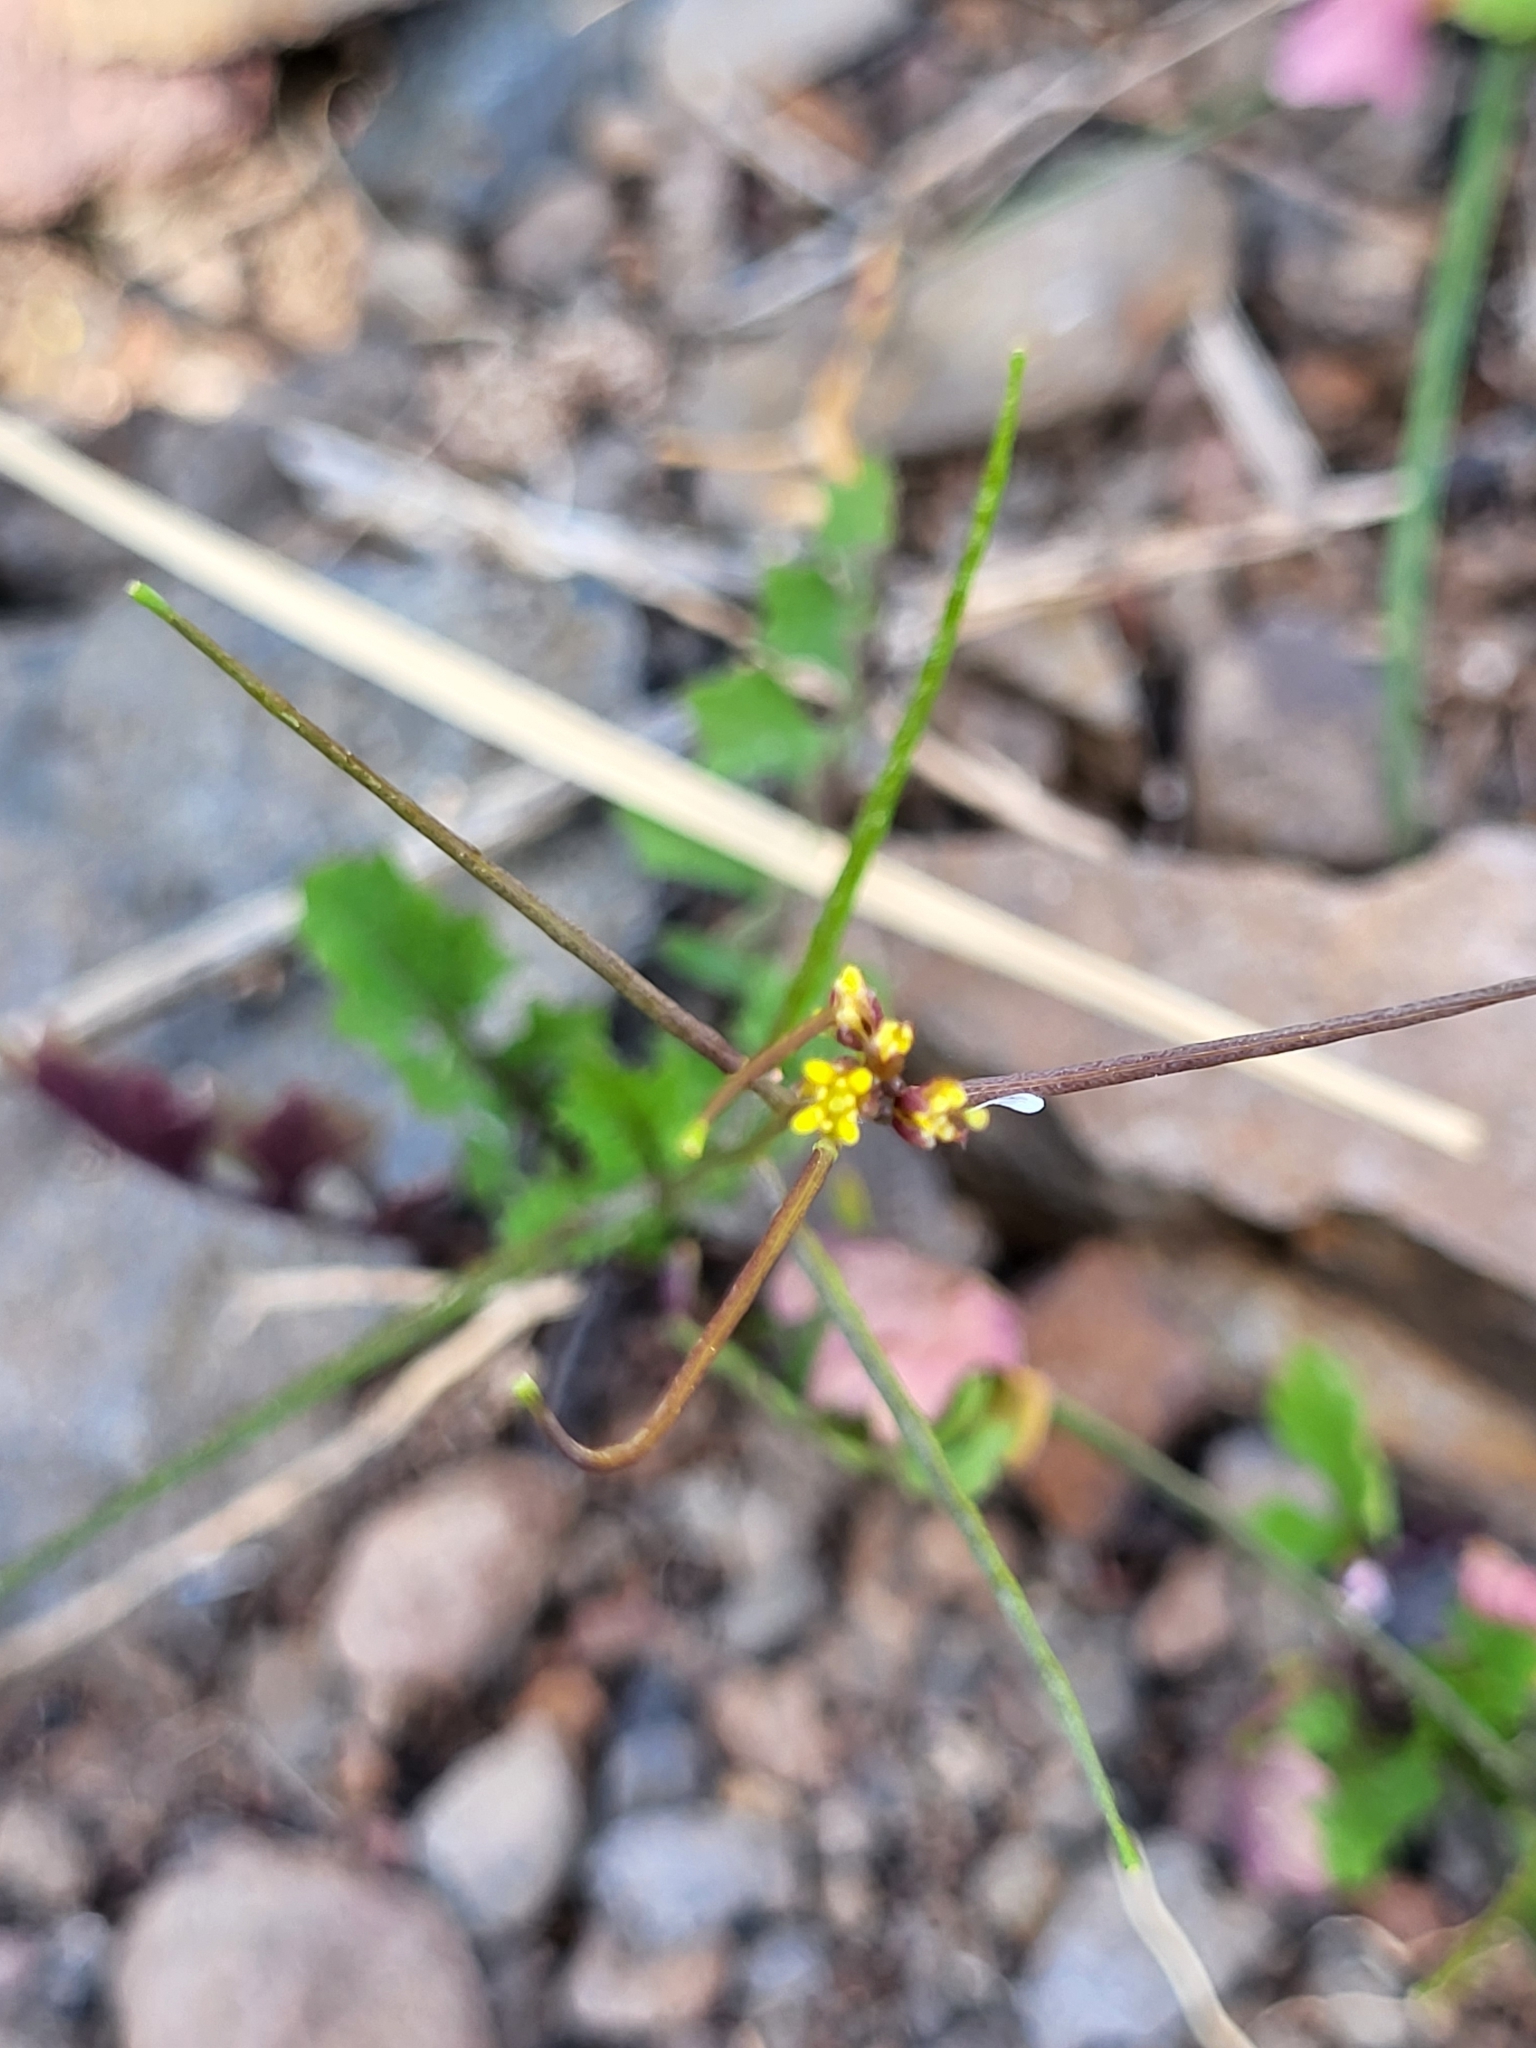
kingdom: Plantae
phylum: Tracheophyta
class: Magnoliopsida
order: Brassicales
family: Brassicaceae
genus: Sisymbrium
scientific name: Sisymbrium irio
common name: London rocket
